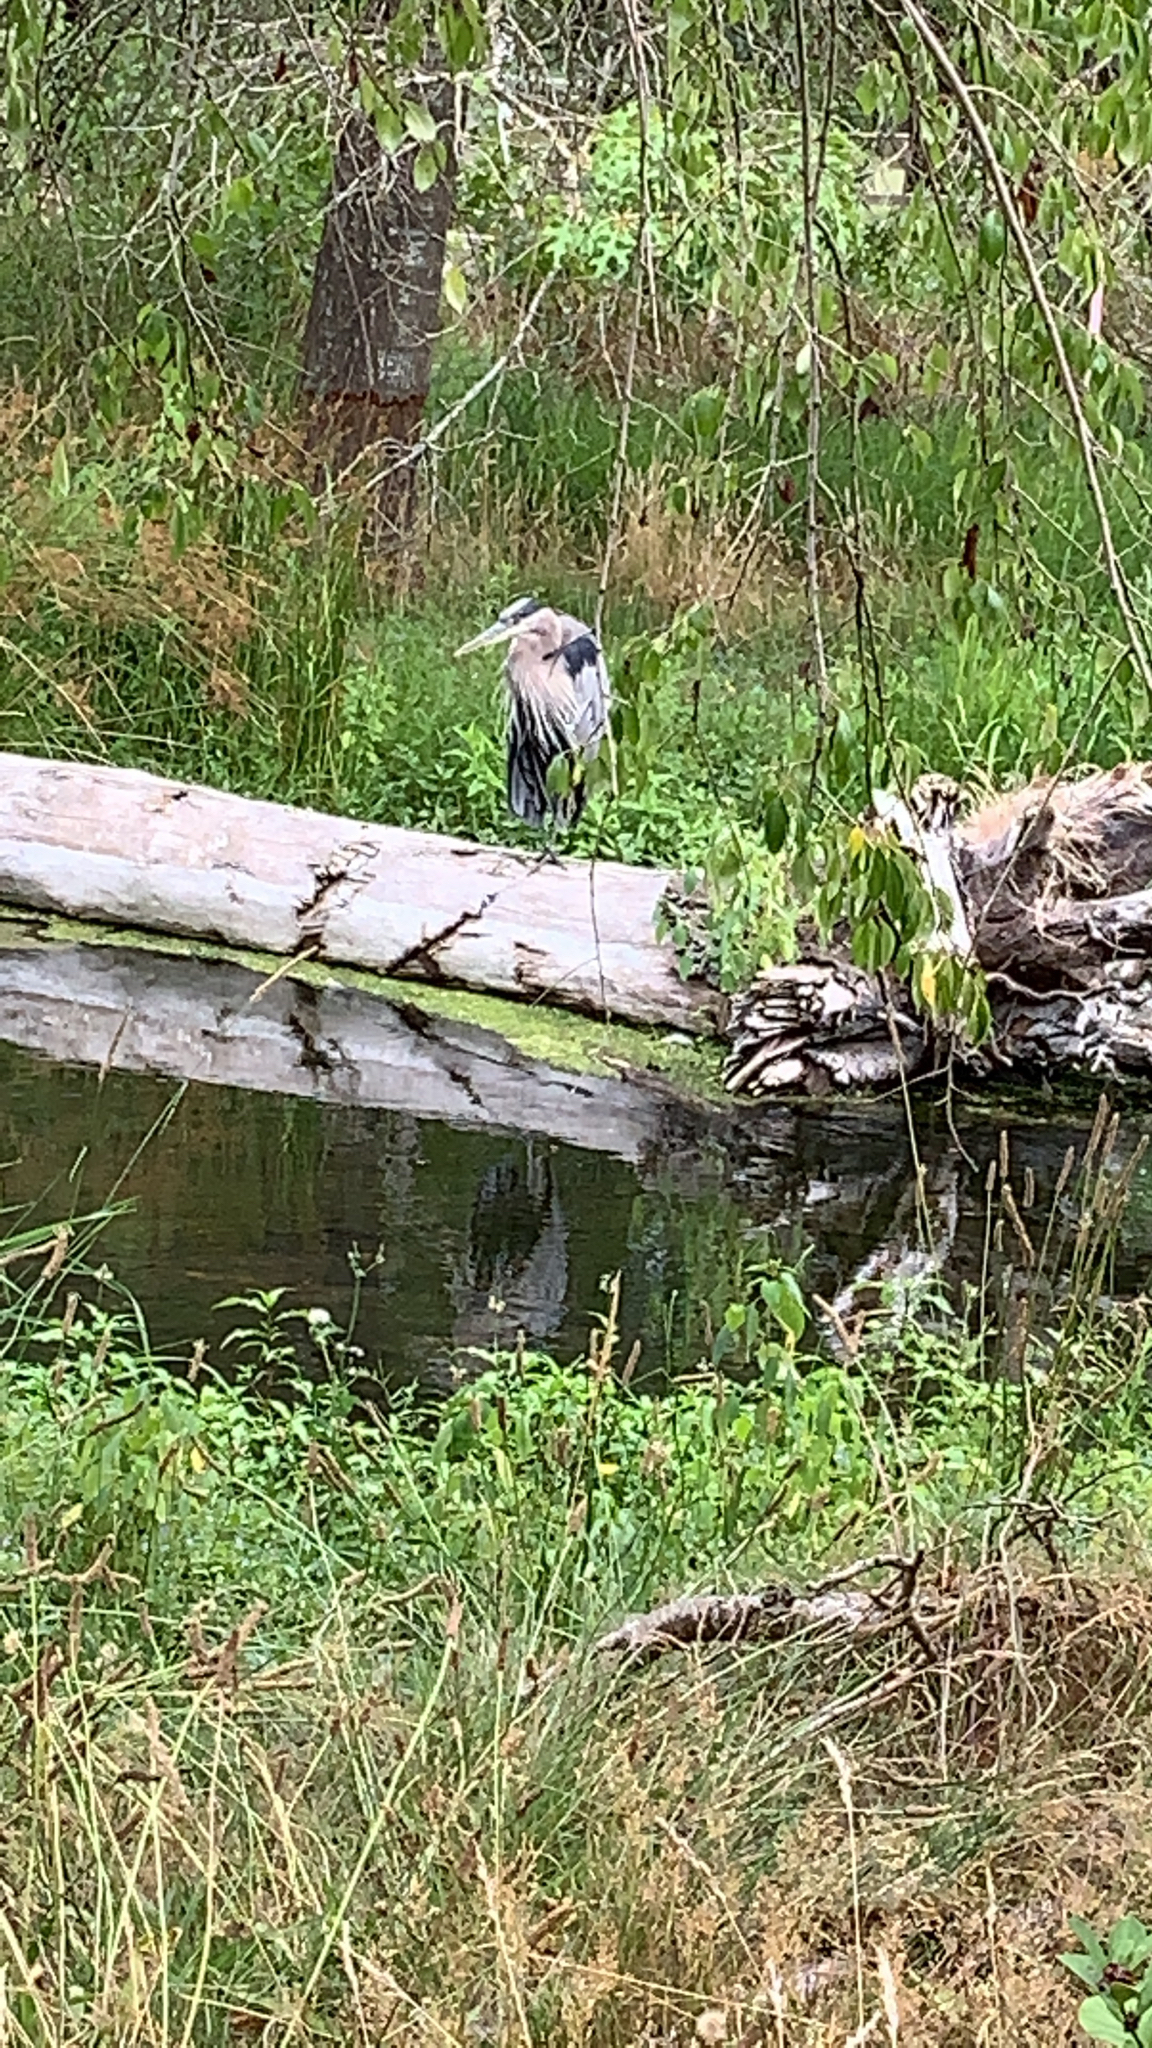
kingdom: Animalia
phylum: Chordata
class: Aves
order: Pelecaniformes
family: Ardeidae
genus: Ardea
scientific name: Ardea herodias
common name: Great blue heron
